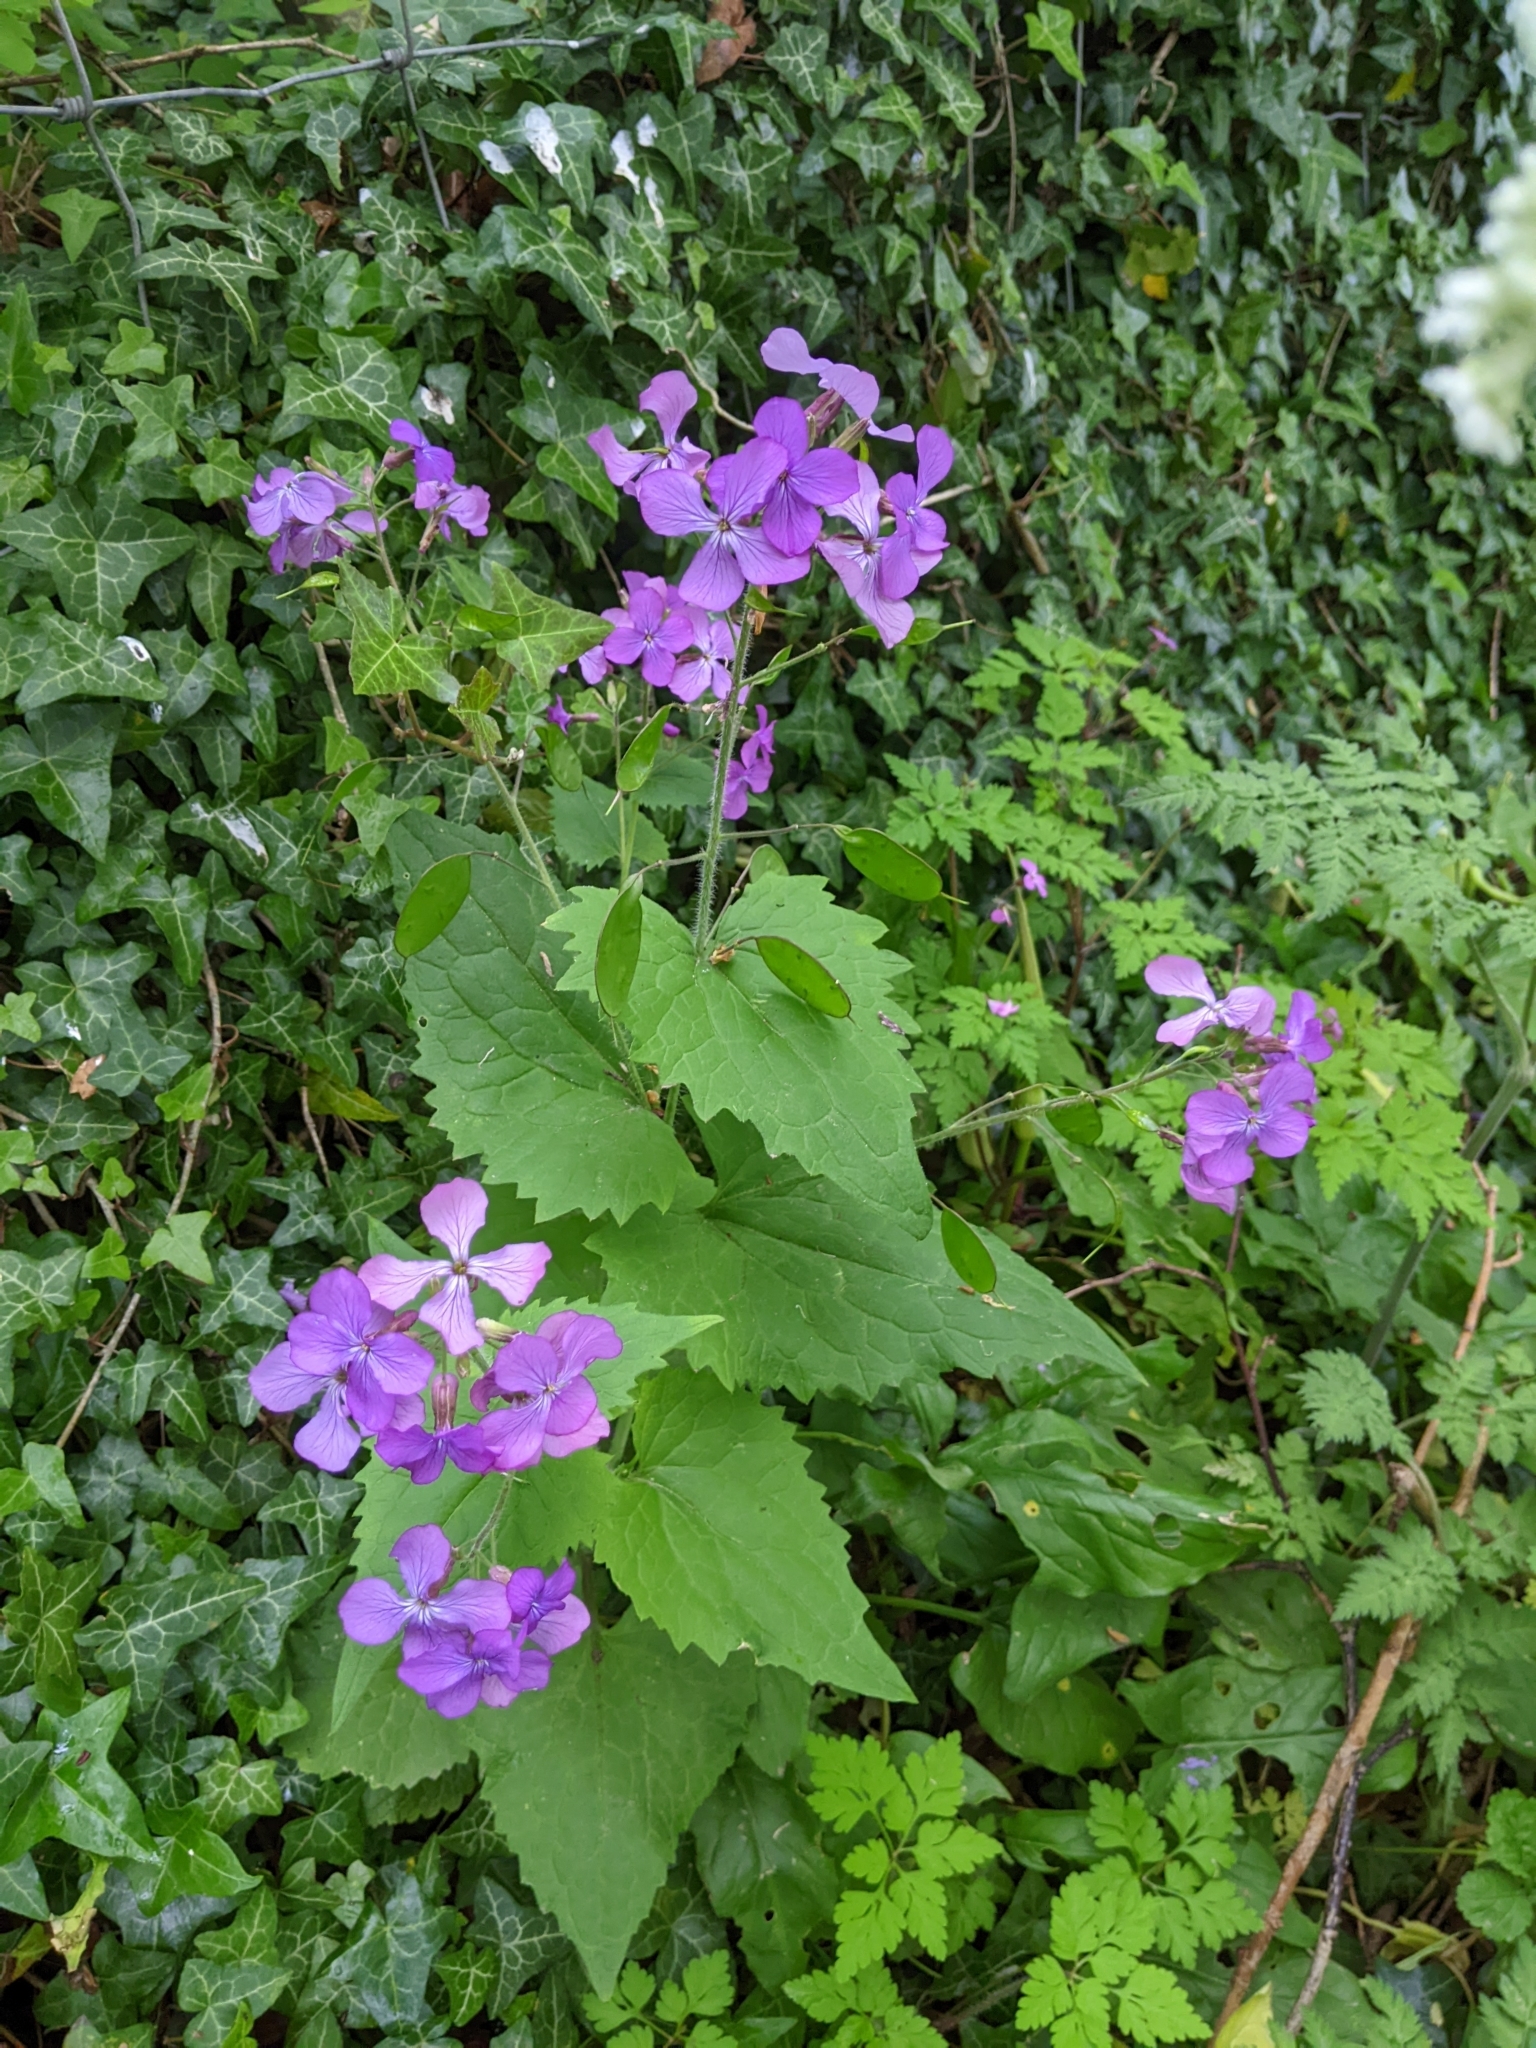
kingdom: Plantae
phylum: Tracheophyta
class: Magnoliopsida
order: Brassicales
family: Brassicaceae
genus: Lunaria
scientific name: Lunaria annua
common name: Honesty
